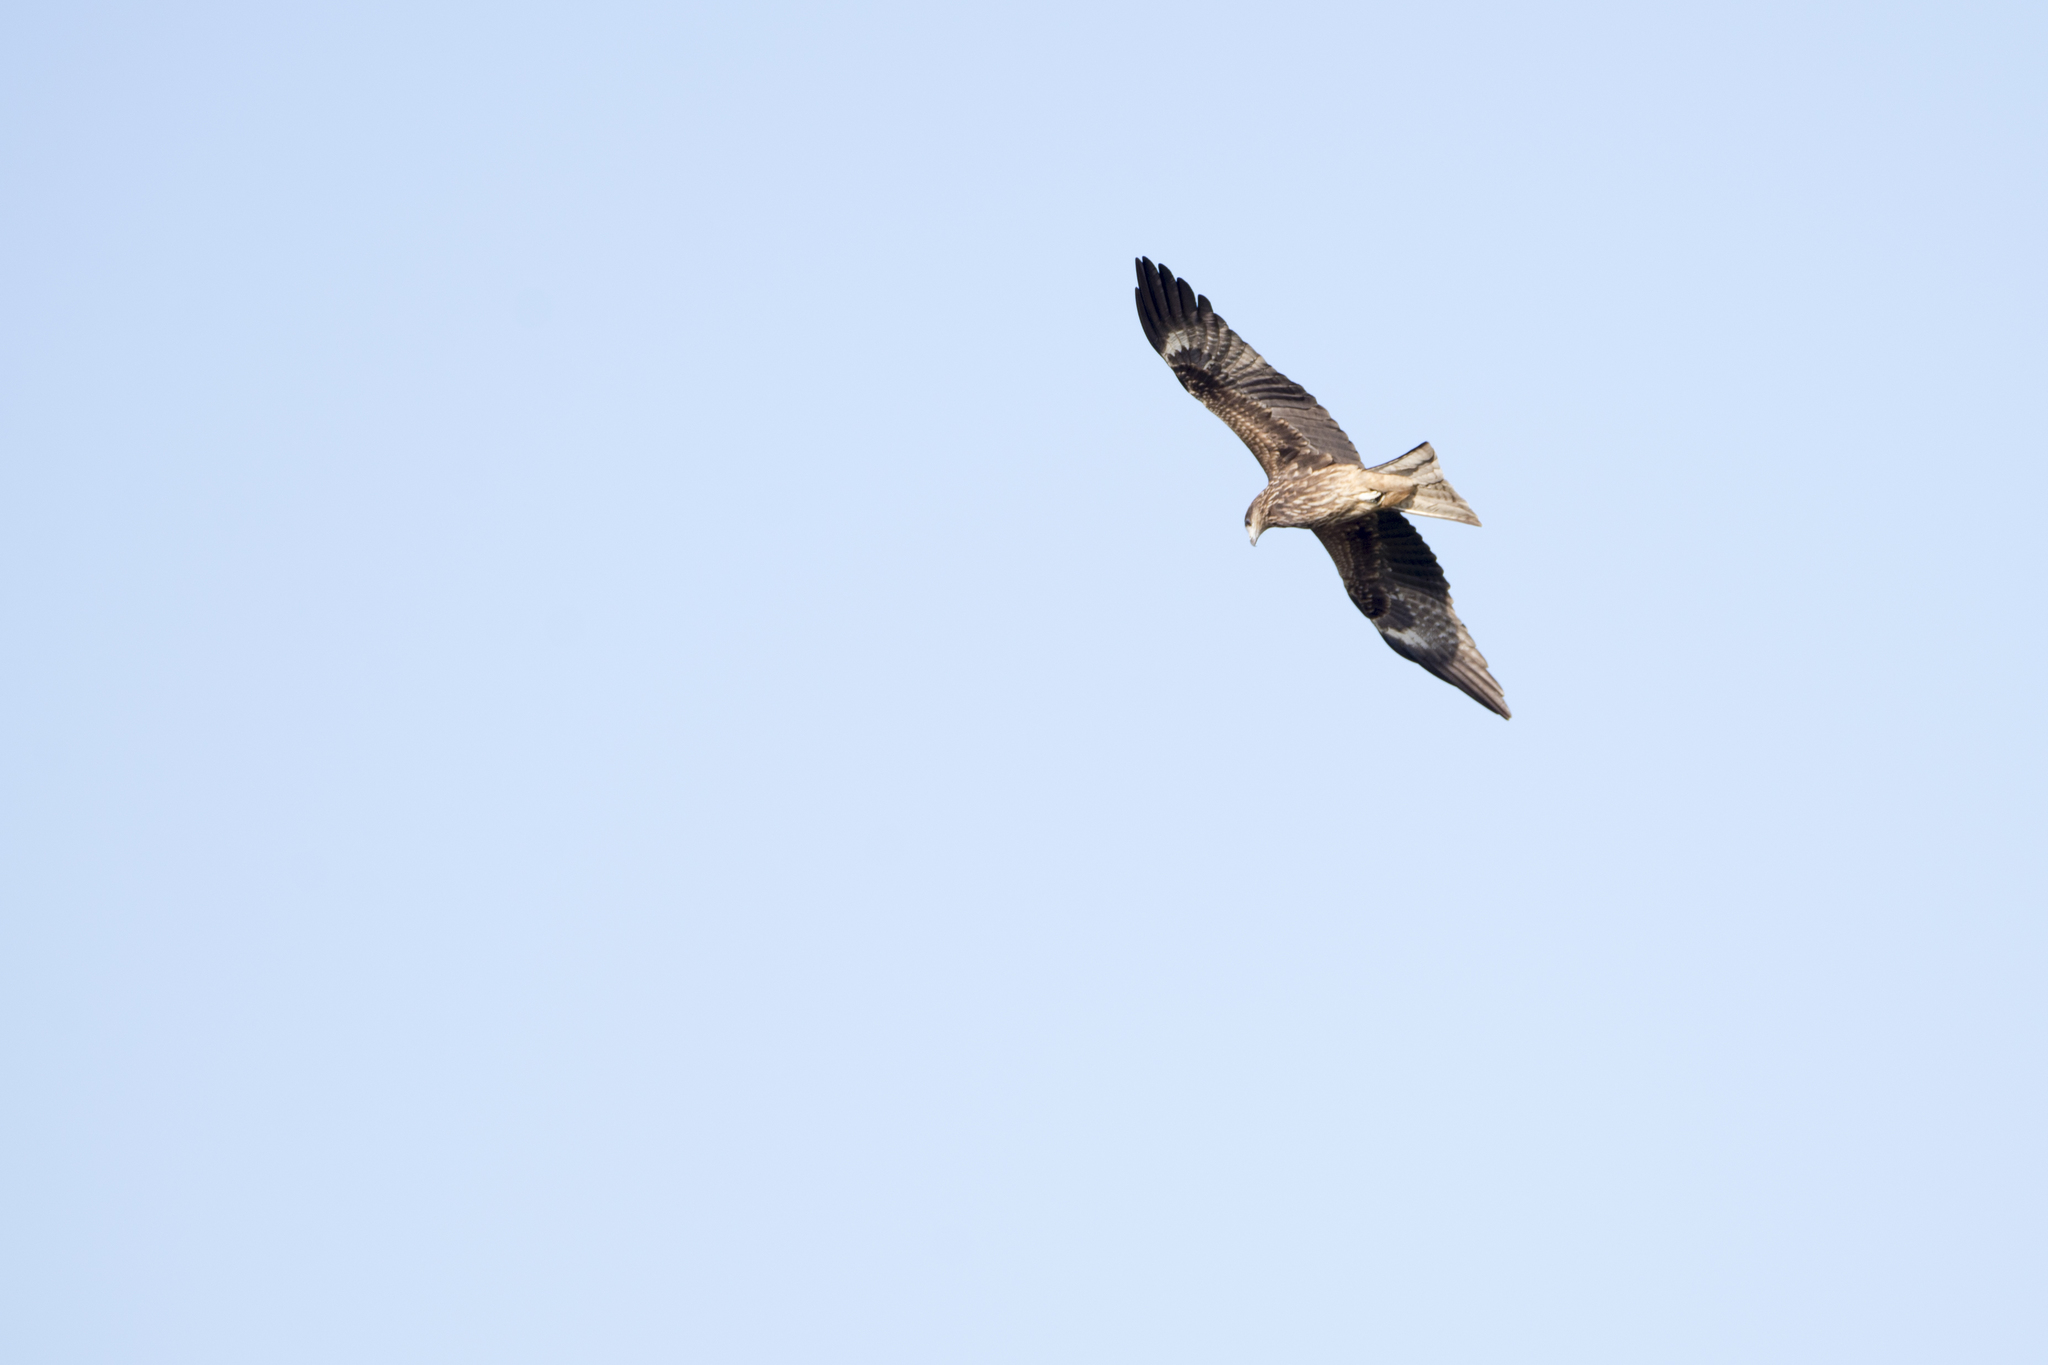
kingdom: Animalia
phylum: Chordata
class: Aves
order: Accipitriformes
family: Accipitridae
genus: Milvus
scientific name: Milvus migrans
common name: Black kite
